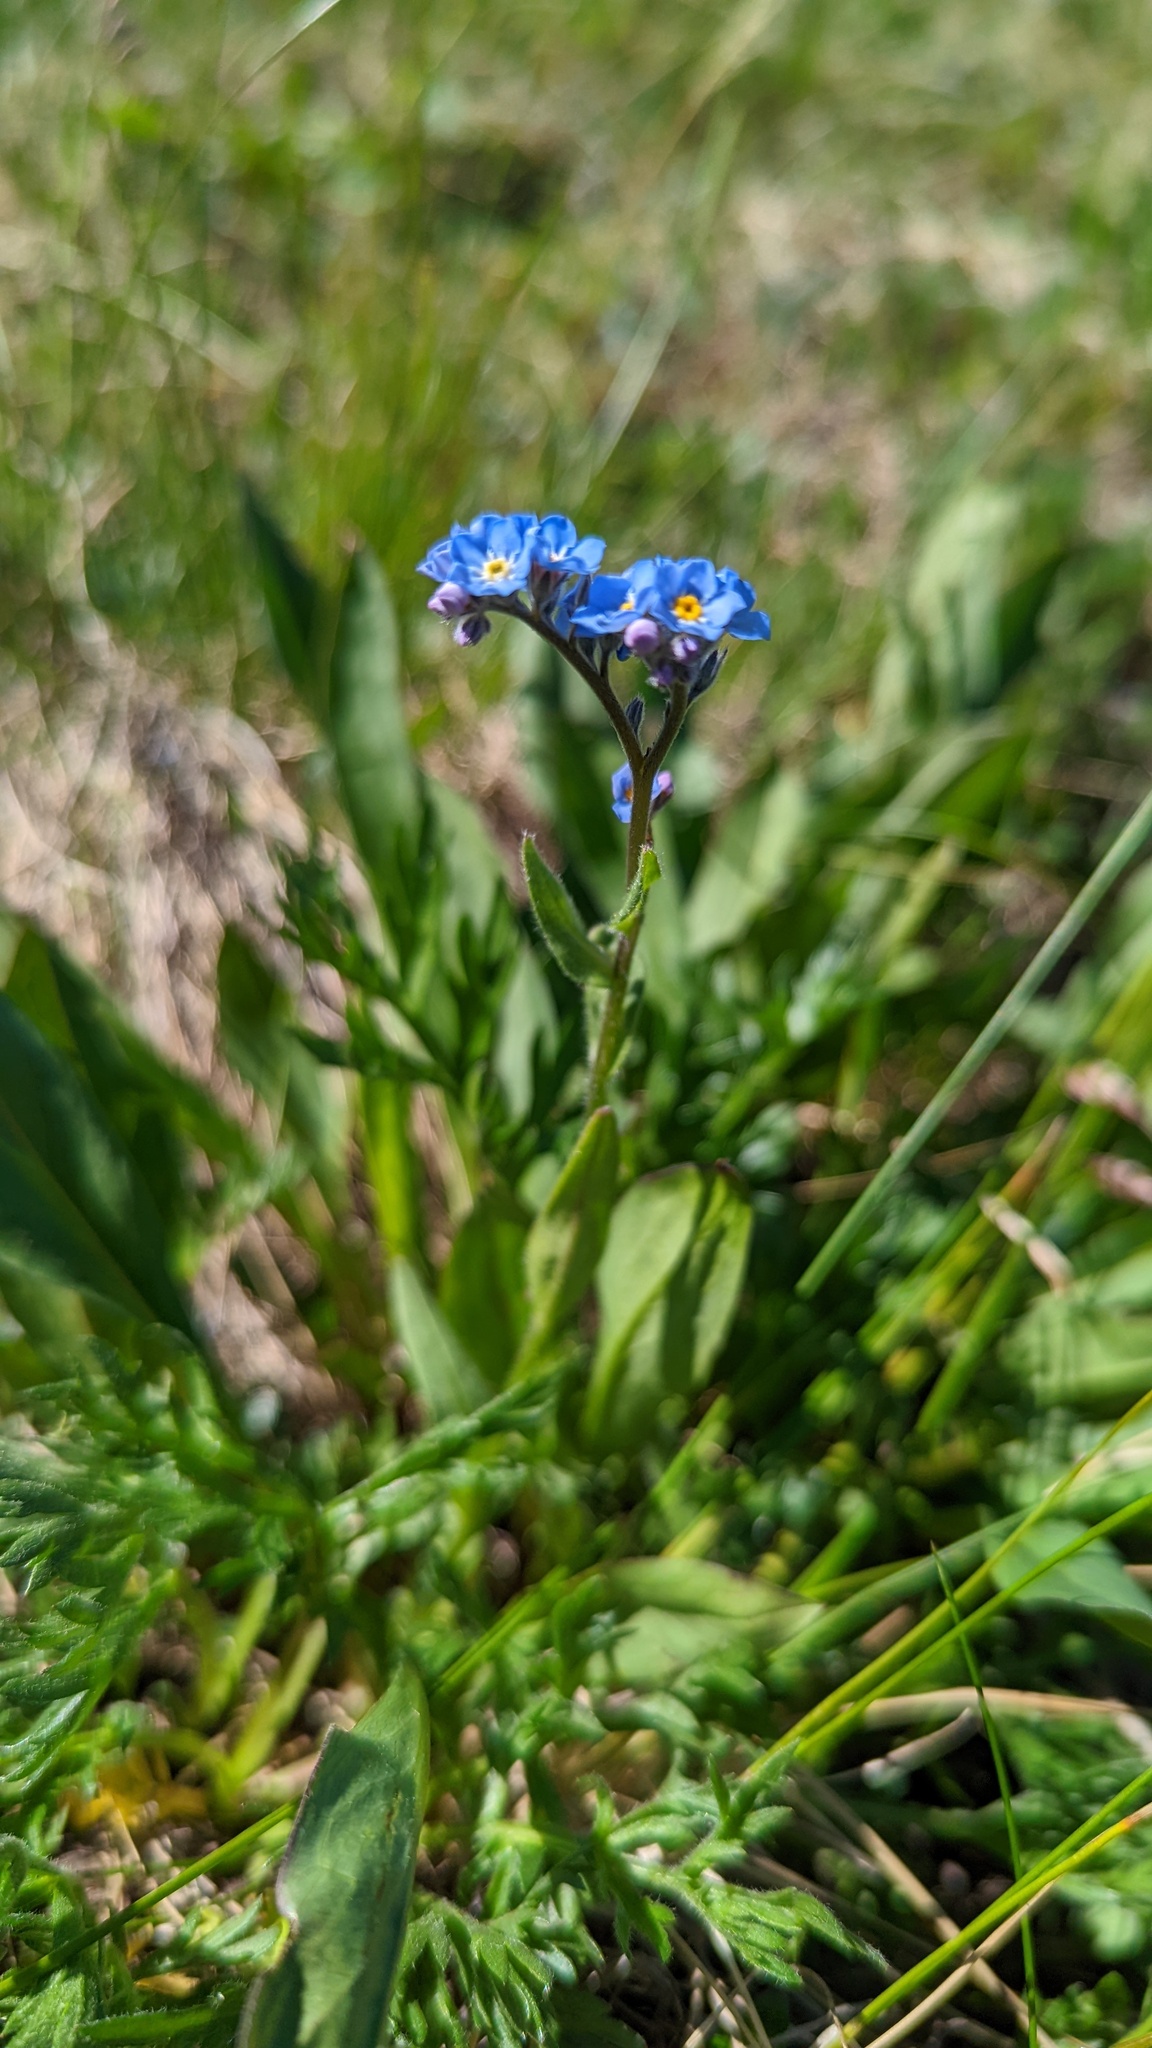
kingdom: Plantae
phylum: Tracheophyta
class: Magnoliopsida
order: Boraginales
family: Boraginaceae
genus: Myosotis
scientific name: Myosotis asiatica
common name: Asian forget-me-not
